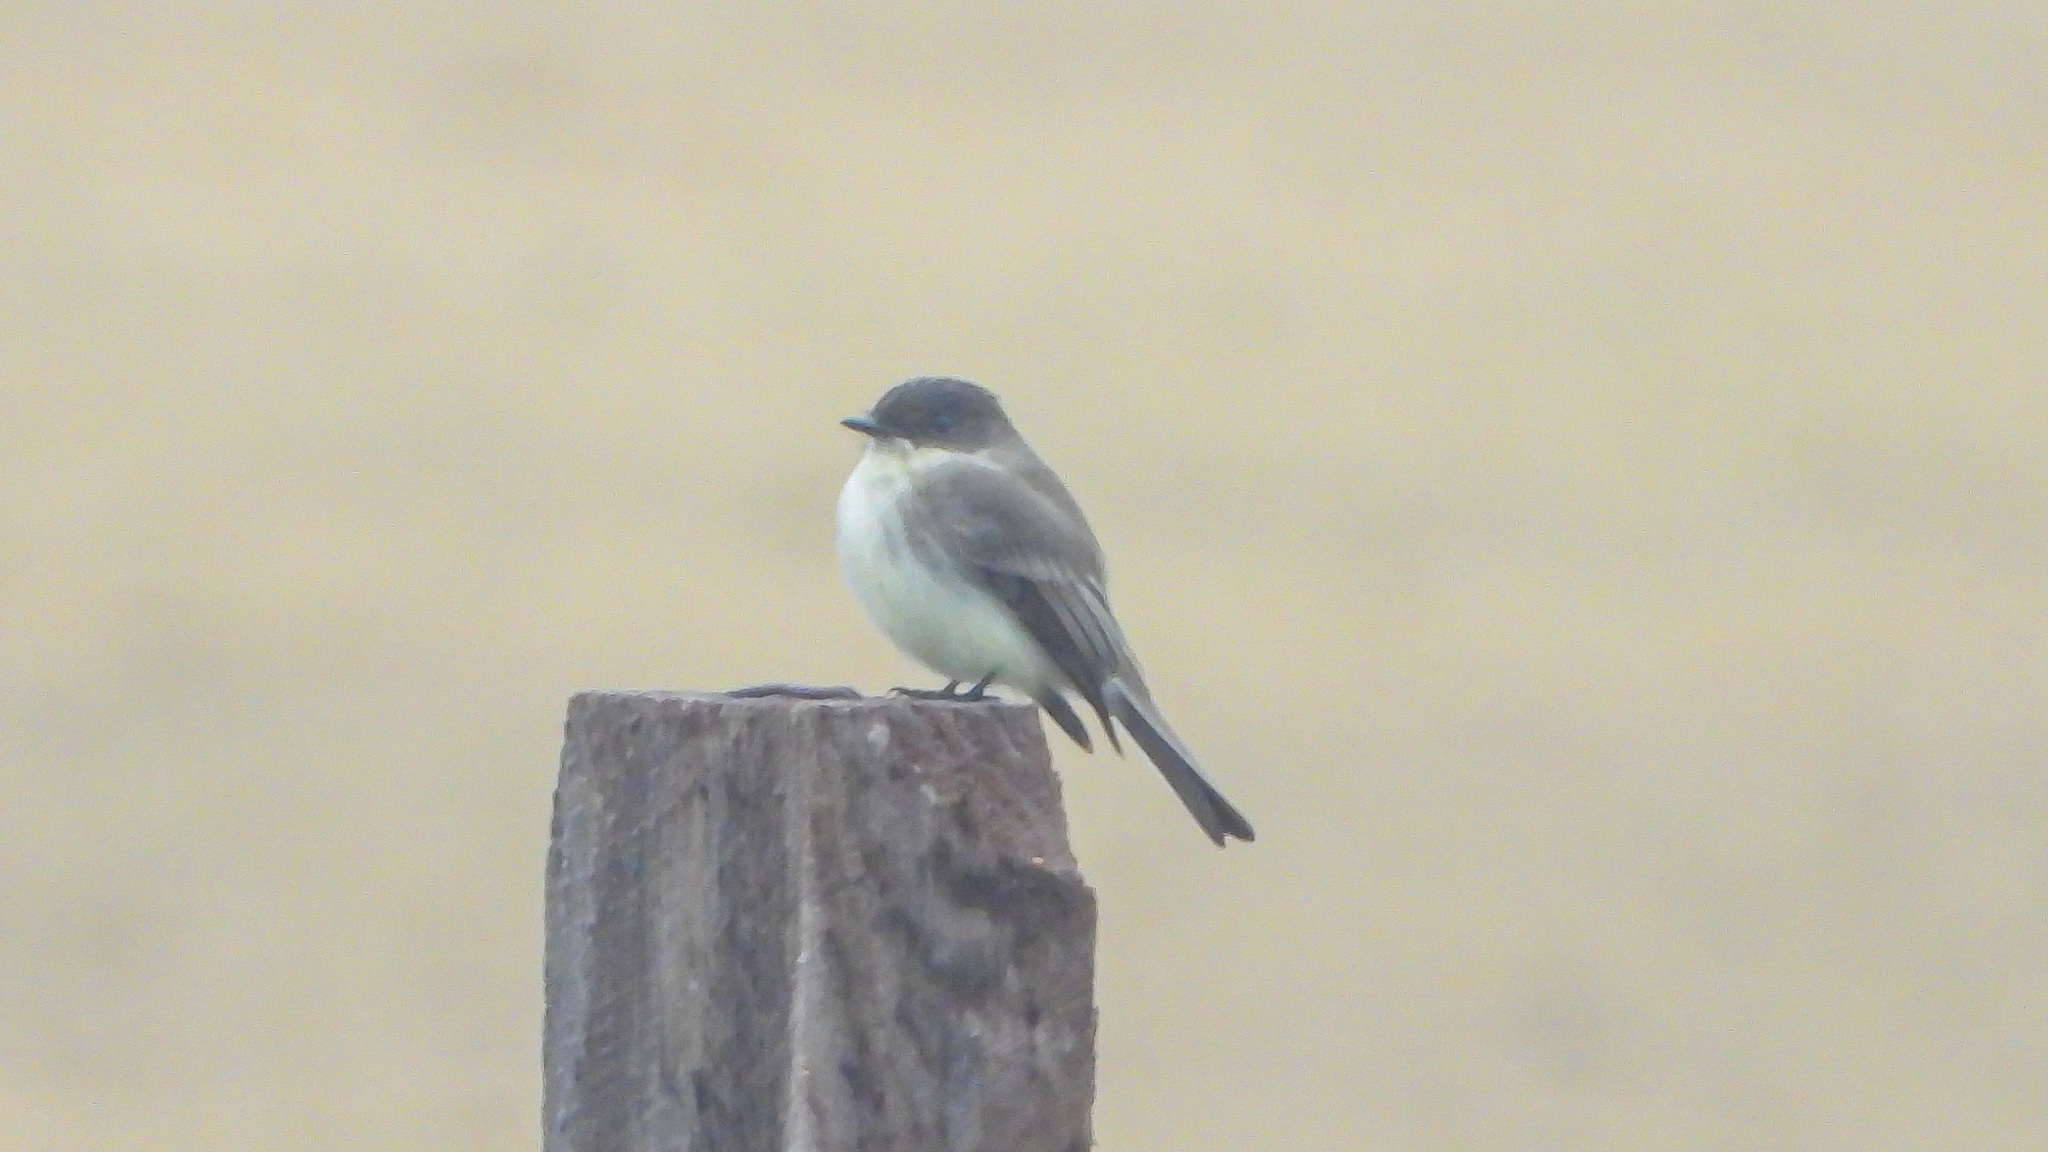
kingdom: Animalia
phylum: Chordata
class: Aves
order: Passeriformes
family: Tyrannidae
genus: Sayornis
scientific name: Sayornis phoebe
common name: Eastern phoebe
